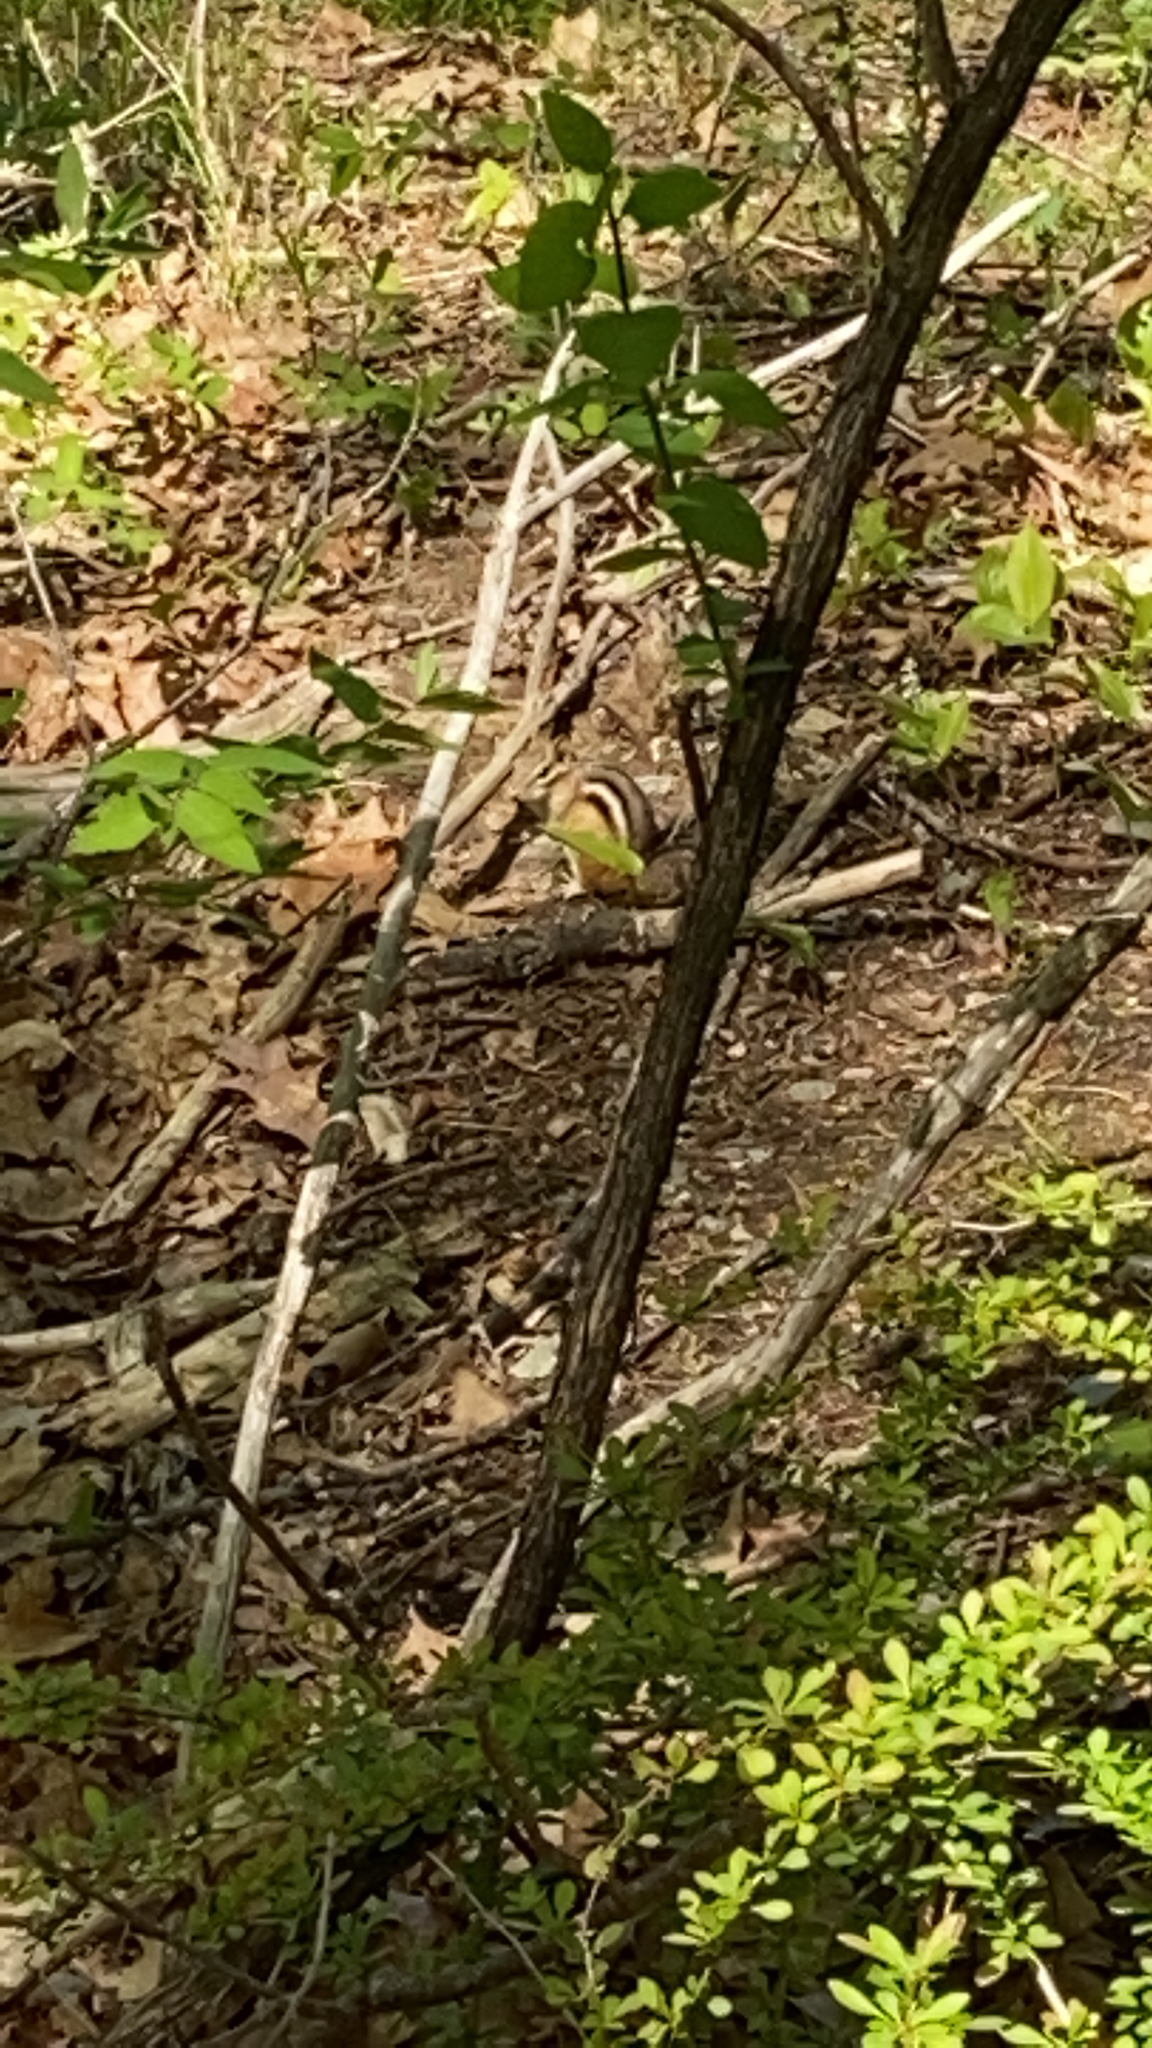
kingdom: Animalia
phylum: Chordata
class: Mammalia
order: Rodentia
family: Sciuridae
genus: Tamias
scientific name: Tamias striatus
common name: Eastern chipmunk
